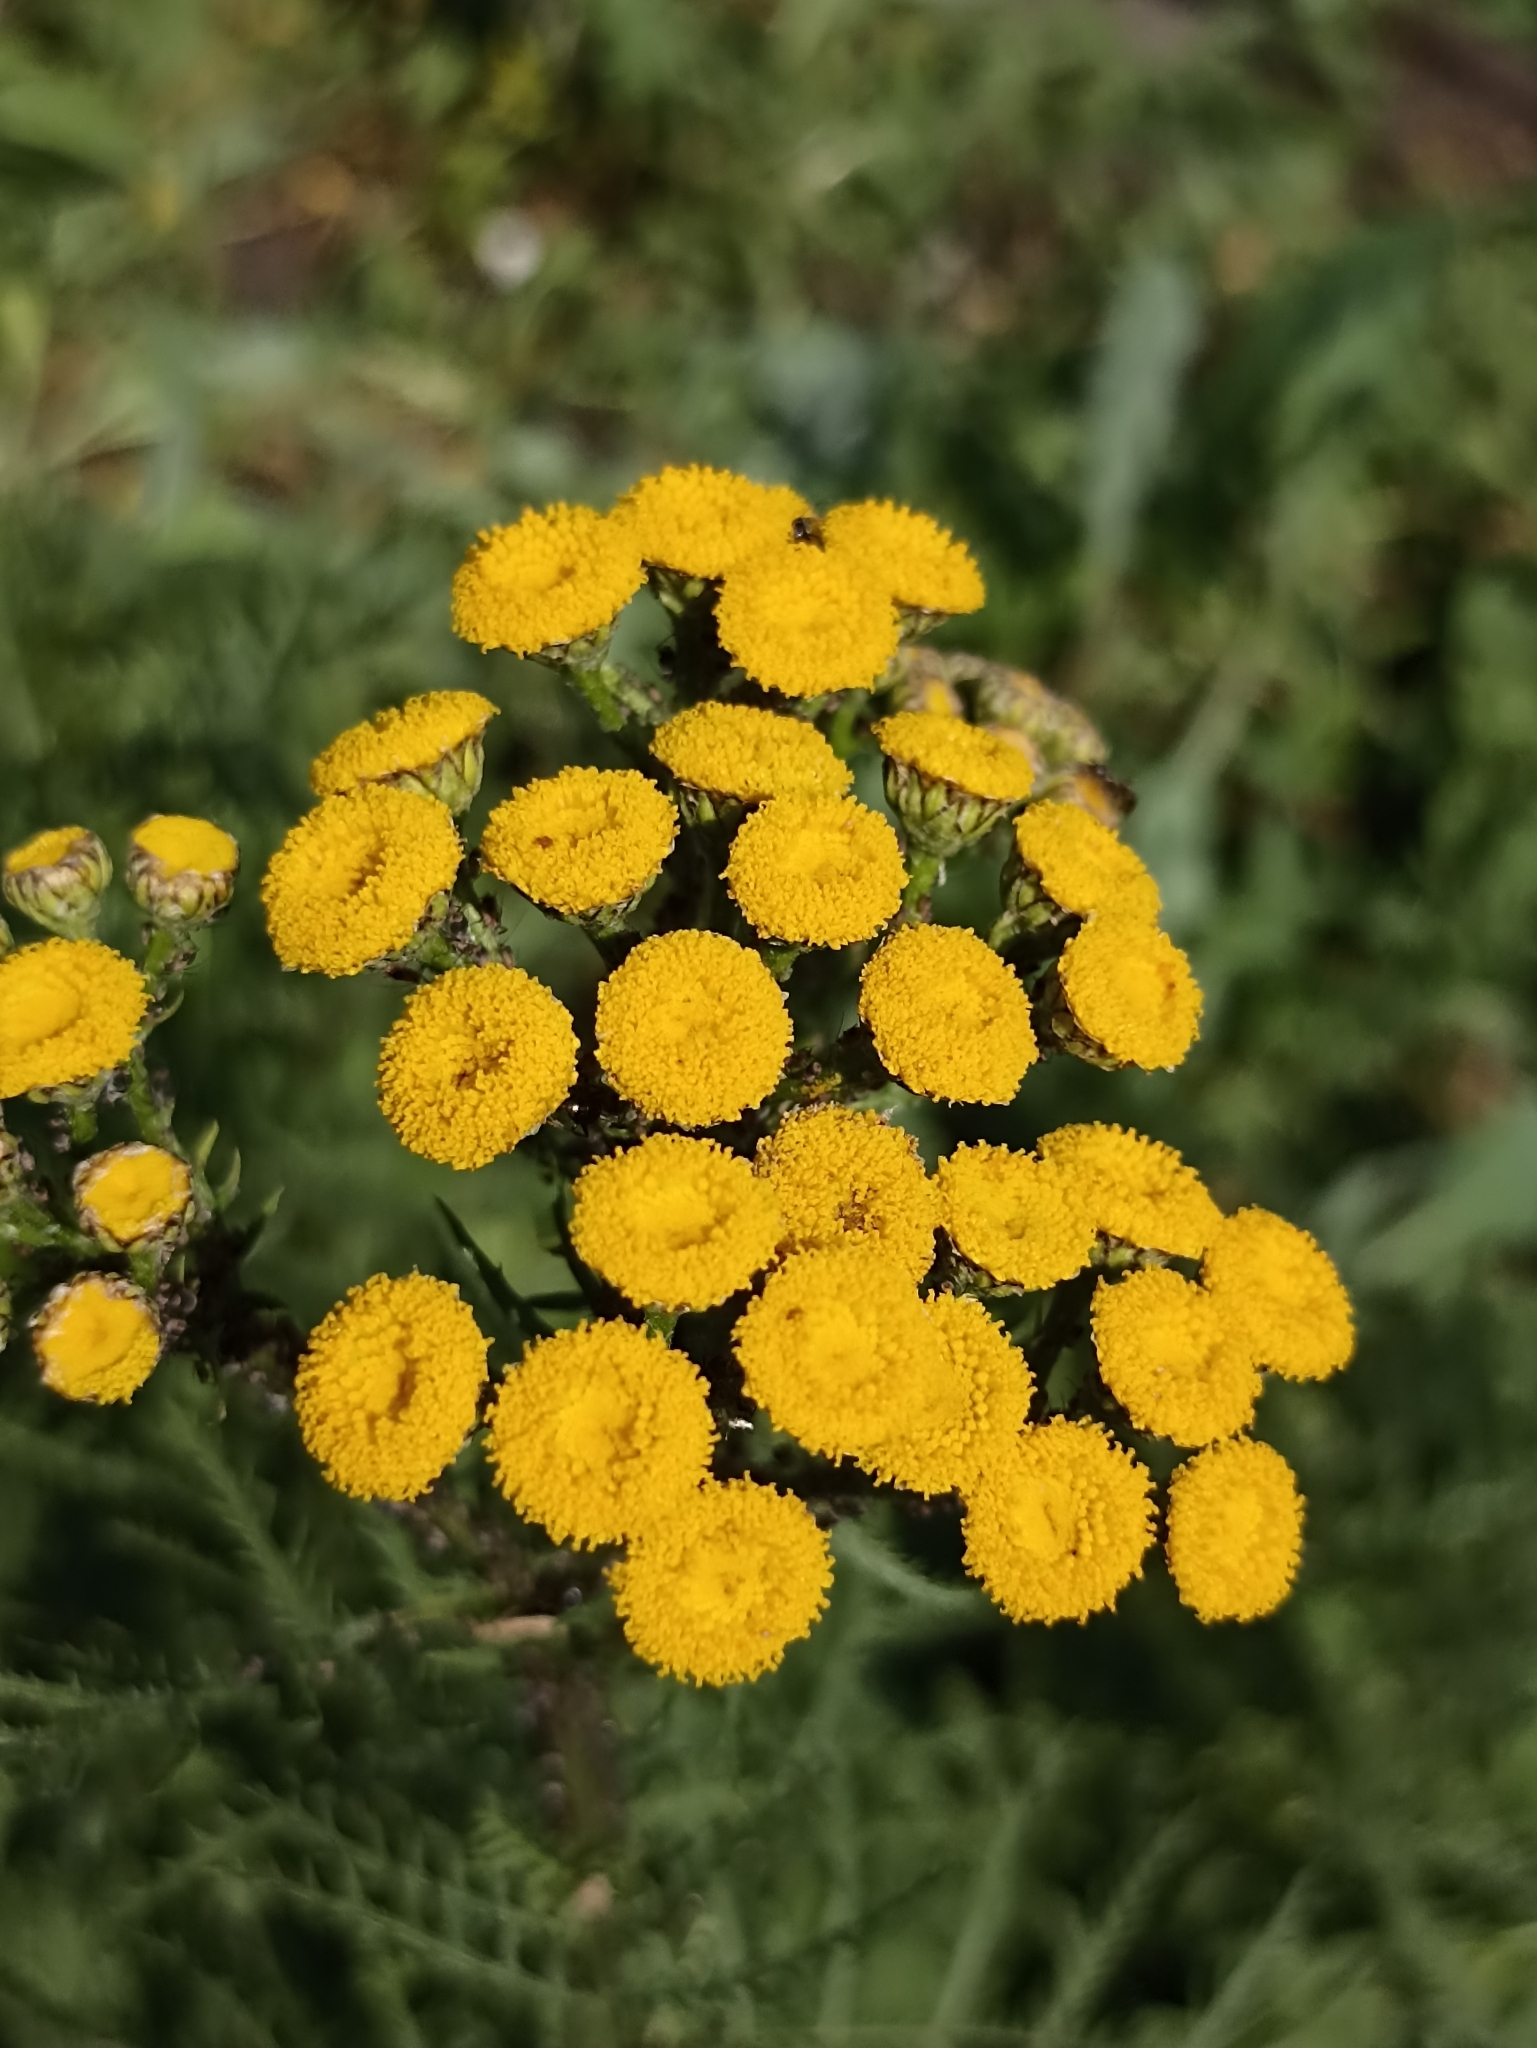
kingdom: Plantae
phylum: Tracheophyta
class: Magnoliopsida
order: Asterales
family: Asteraceae
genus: Tanacetum
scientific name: Tanacetum vulgare
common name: Common tansy
